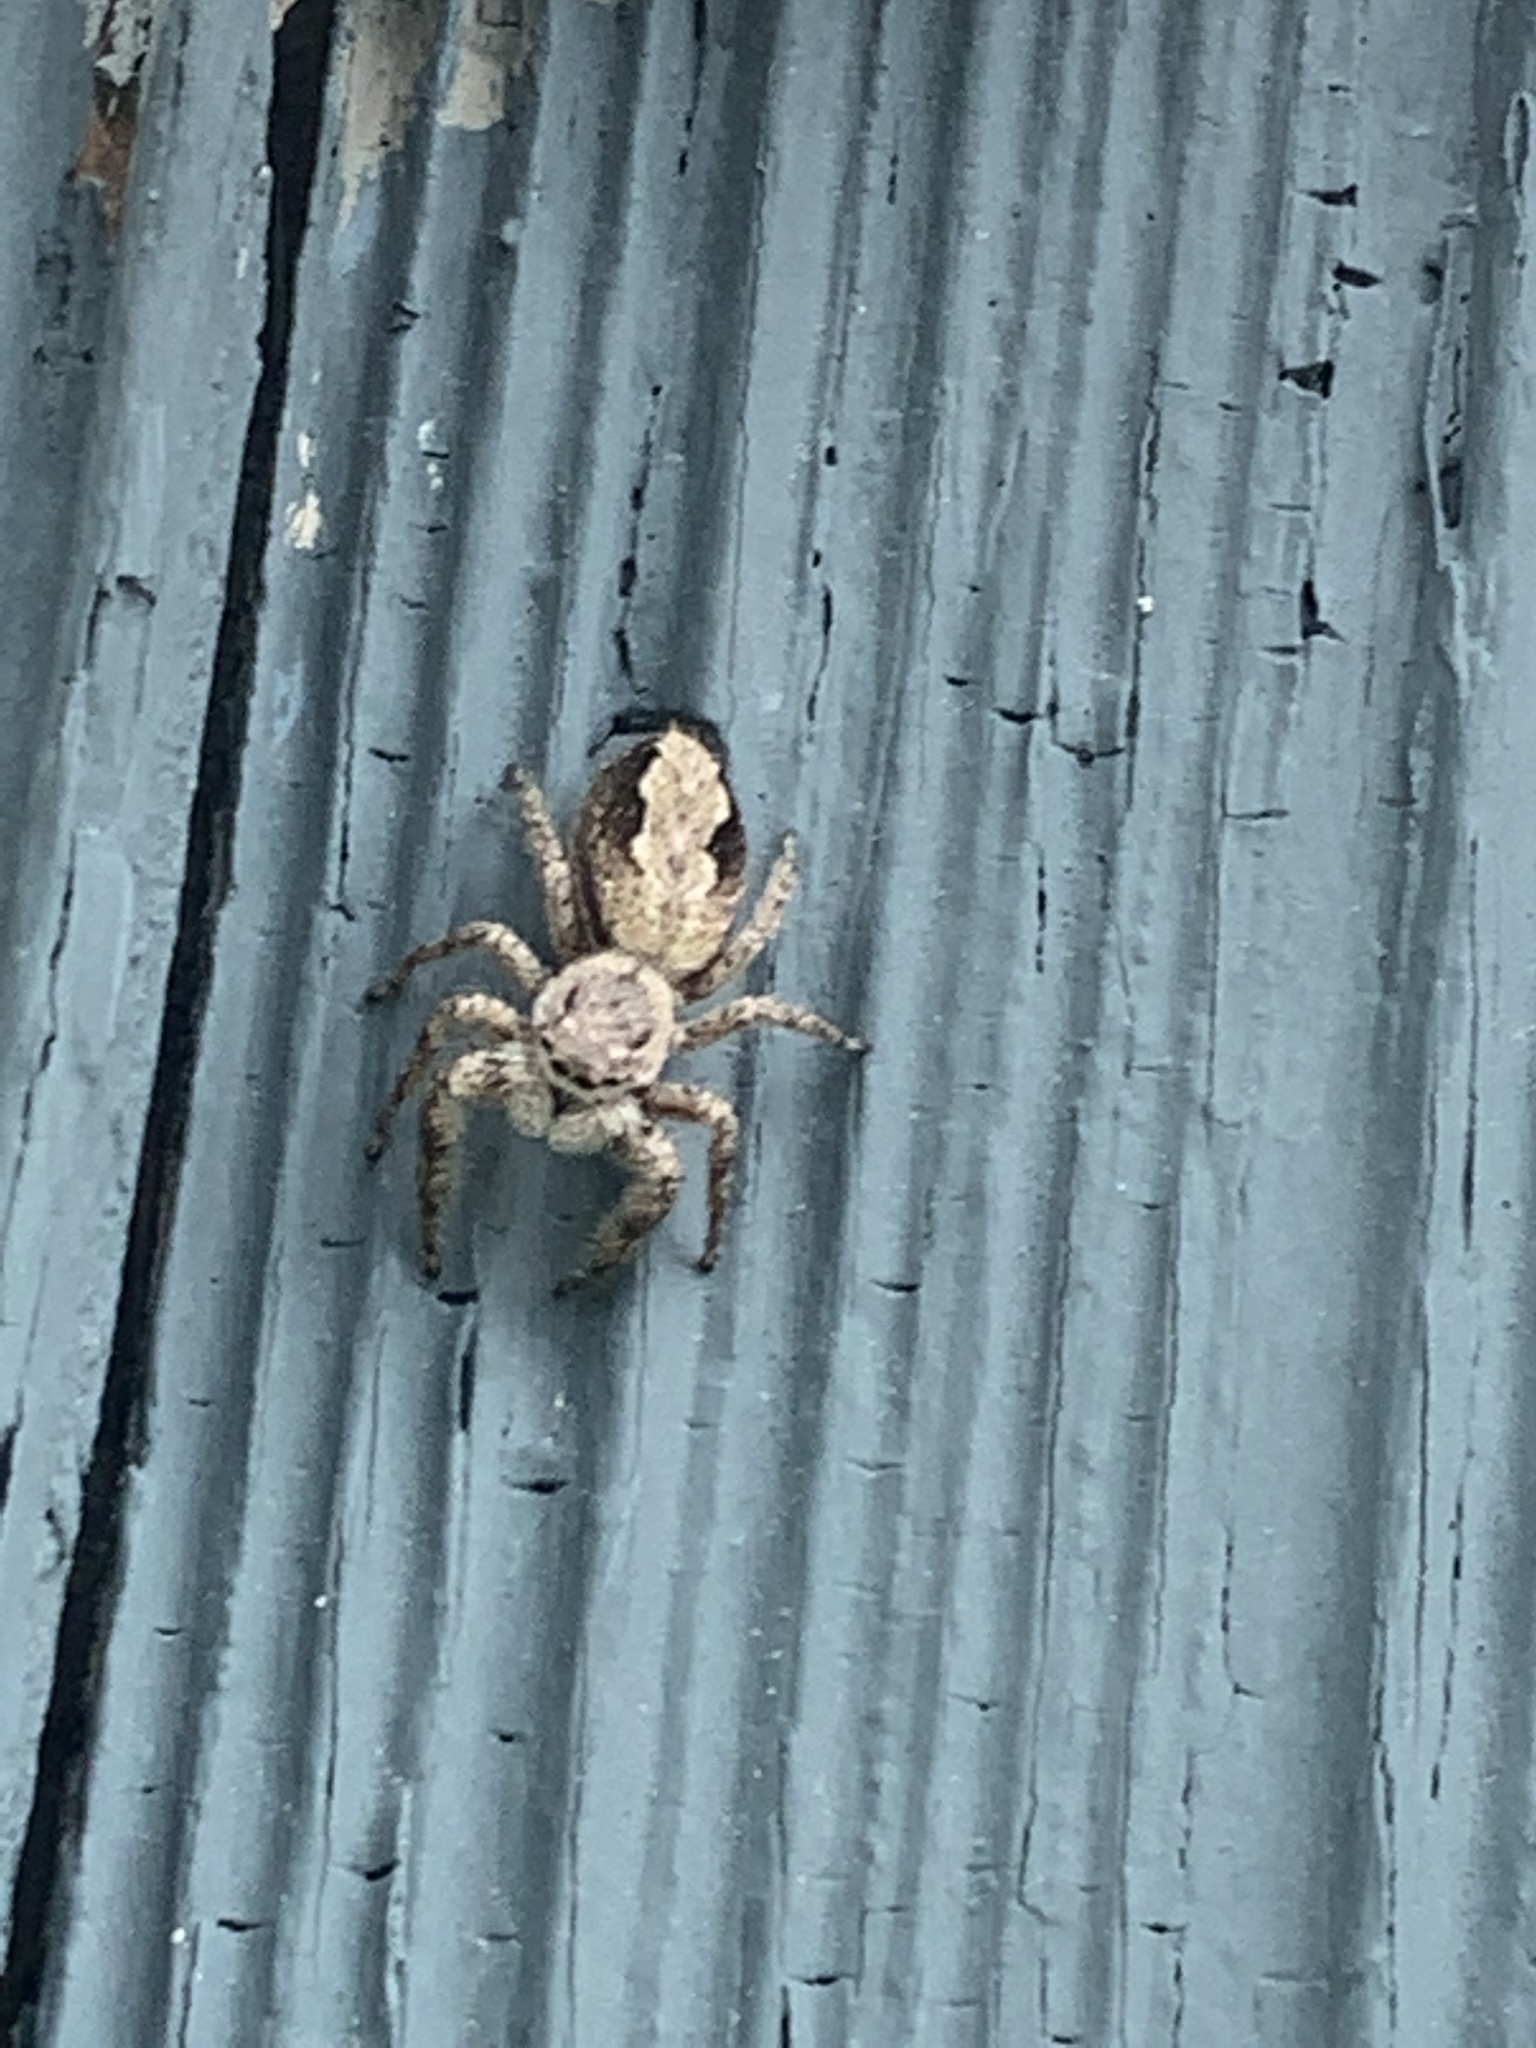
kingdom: Animalia
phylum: Arthropoda
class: Arachnida
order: Araneae
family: Salticidae
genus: Platycryptus
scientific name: Platycryptus undatus
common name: Tan jumping spider
